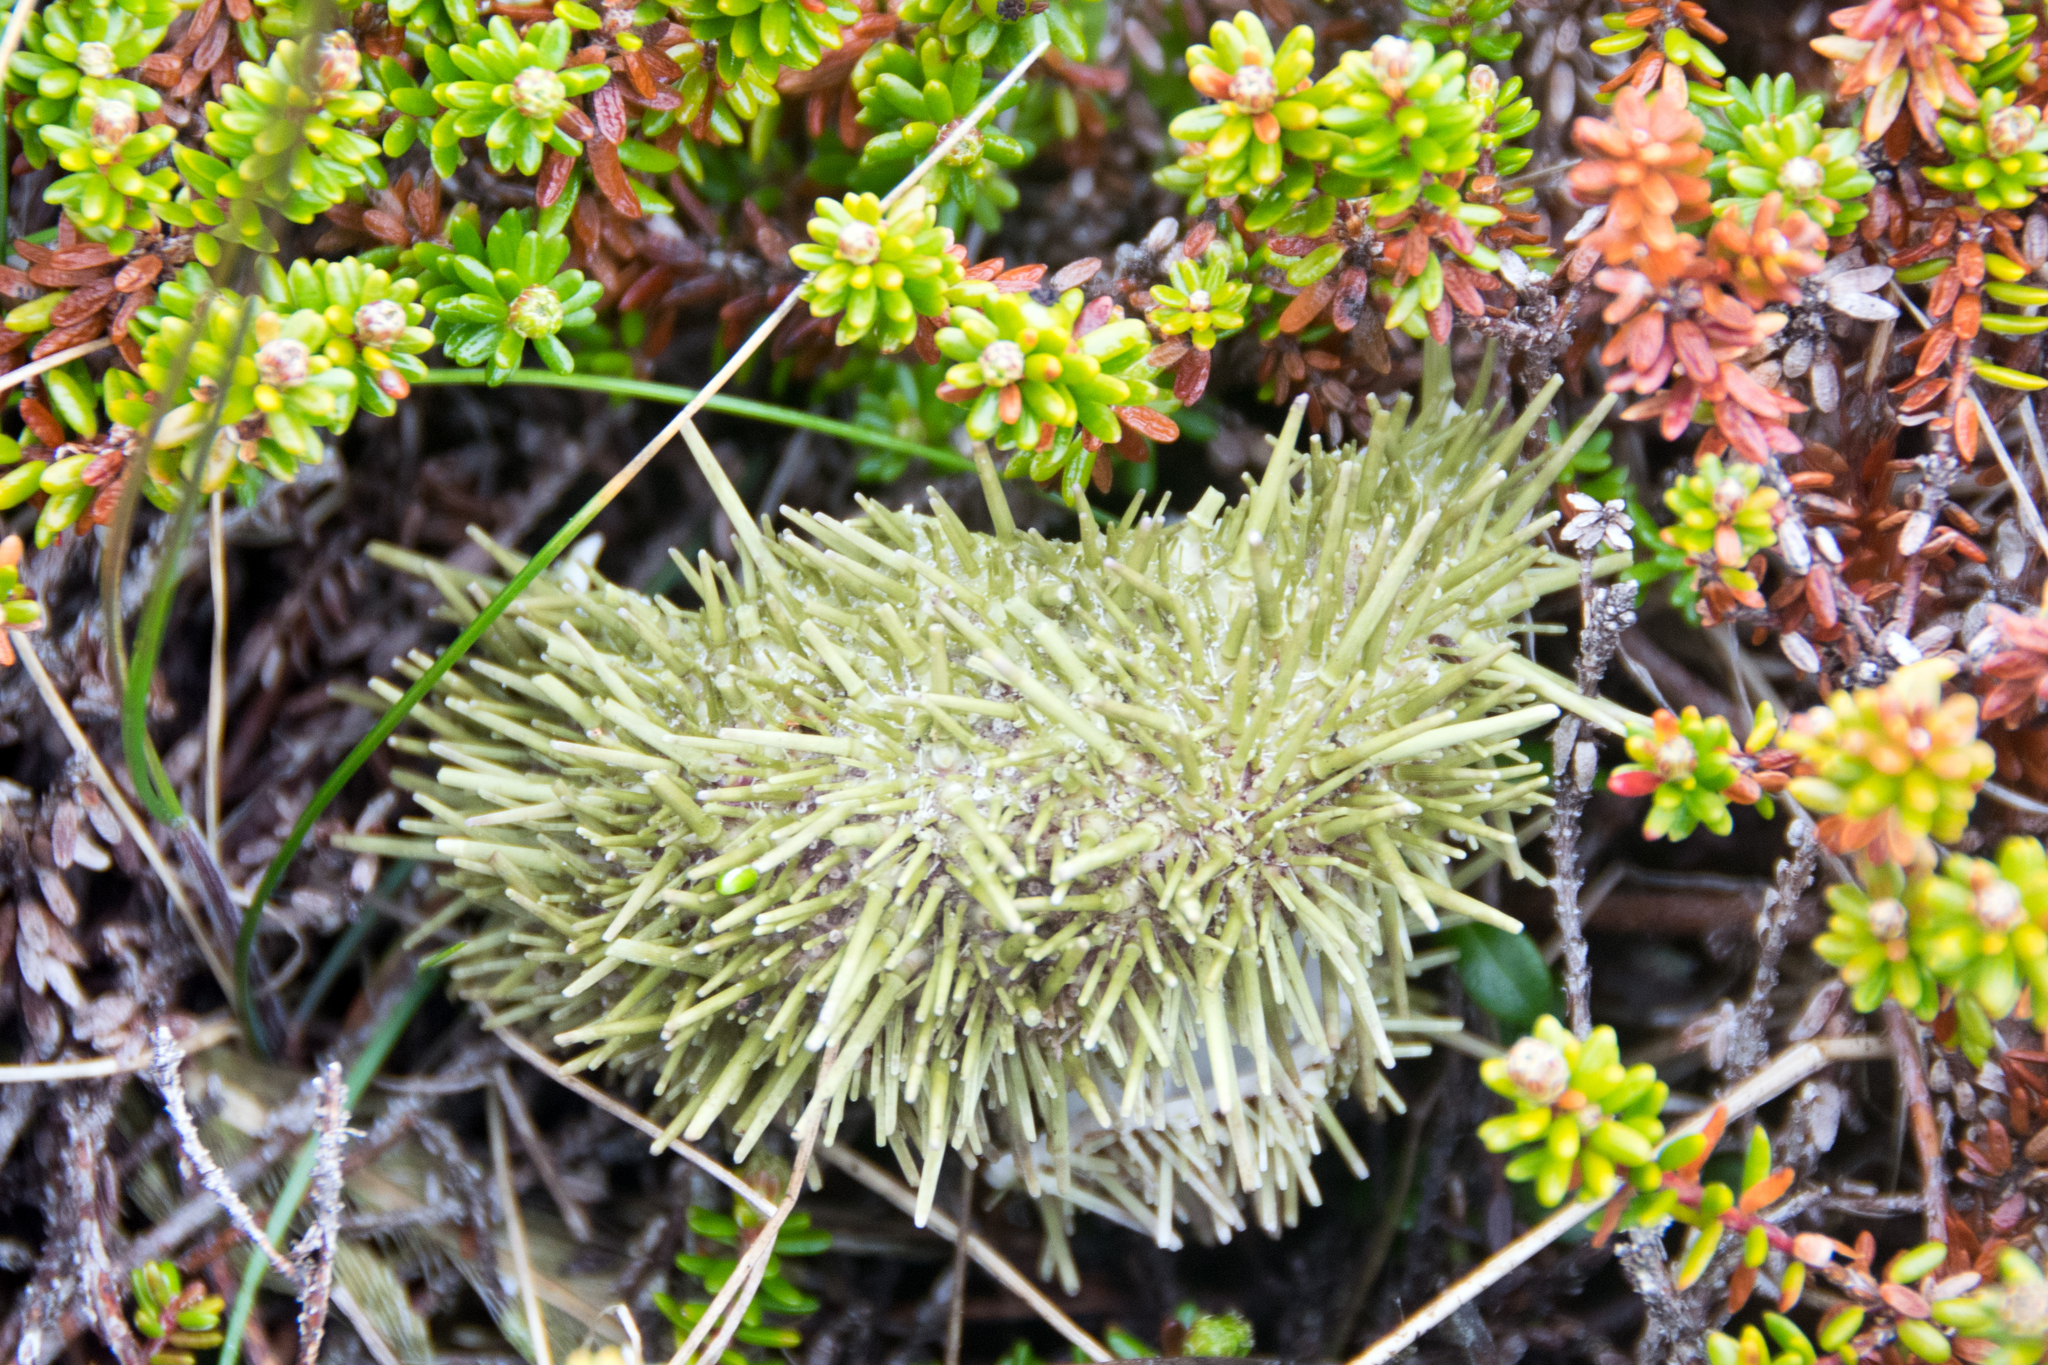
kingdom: Animalia
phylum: Echinodermata
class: Echinoidea
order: Camarodonta
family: Strongylocentrotidae
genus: Strongylocentrotus
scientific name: Strongylocentrotus droebachiensis
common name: Northern sea urchin
